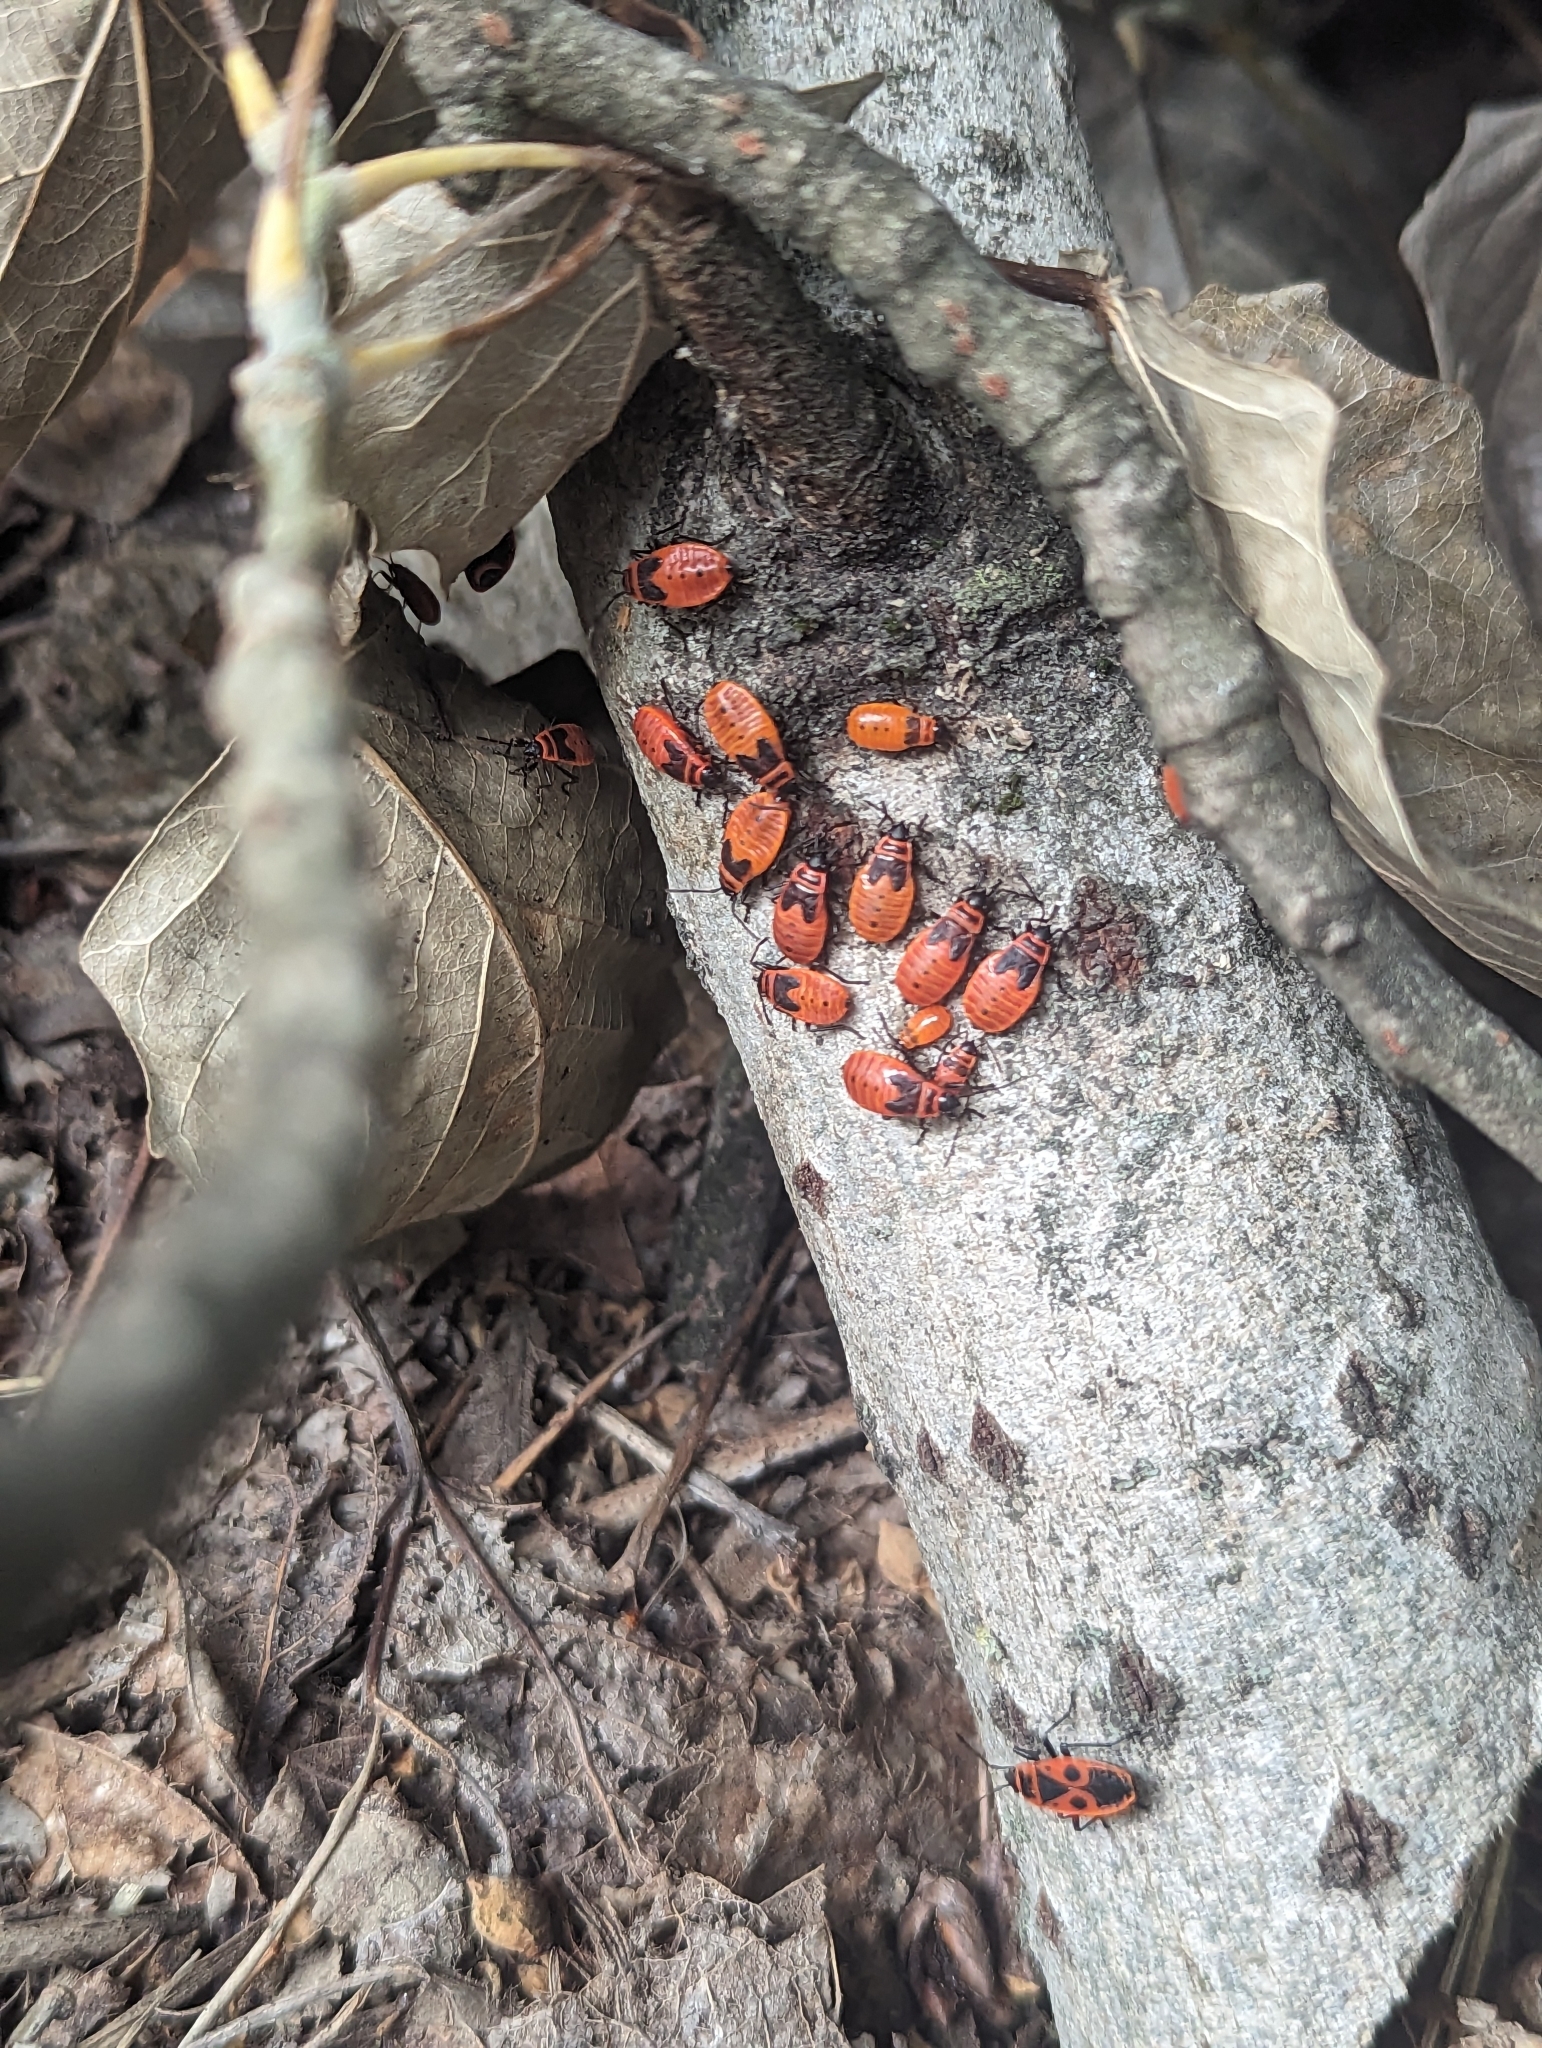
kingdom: Animalia
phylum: Arthropoda
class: Insecta
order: Hemiptera
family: Pyrrhocoridae
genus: Pyrrhocoris
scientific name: Pyrrhocoris apterus
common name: Firebug
